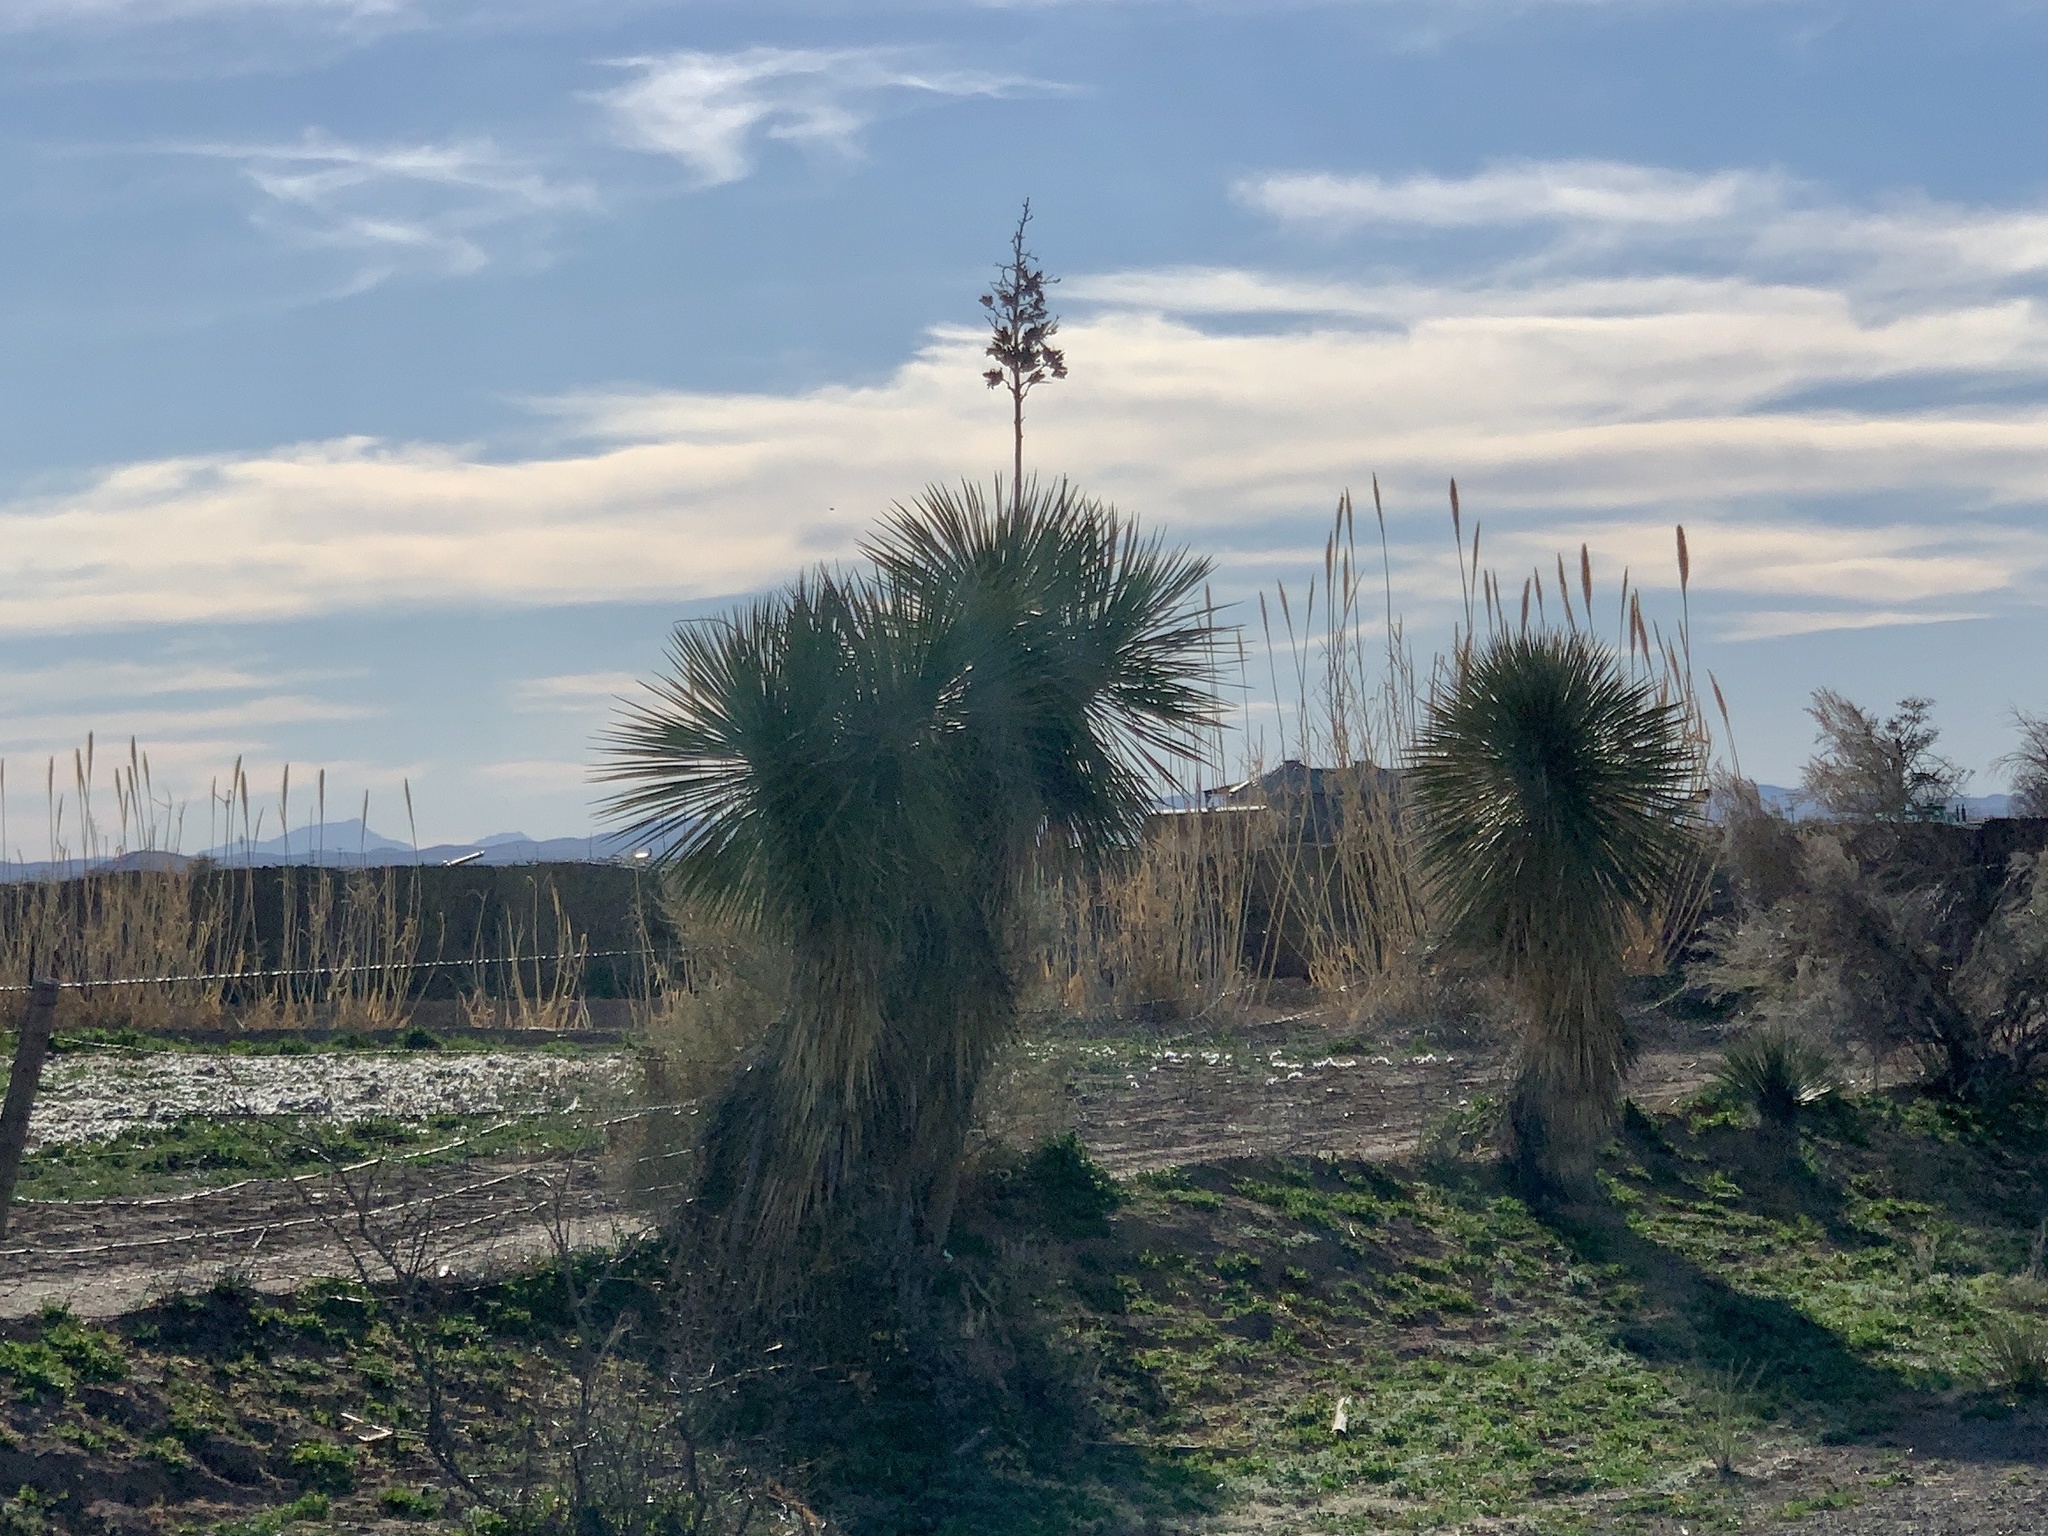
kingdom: Plantae
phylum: Tracheophyta
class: Liliopsida
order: Asparagales
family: Asparagaceae
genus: Yucca
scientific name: Yucca elata
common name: Palmella
